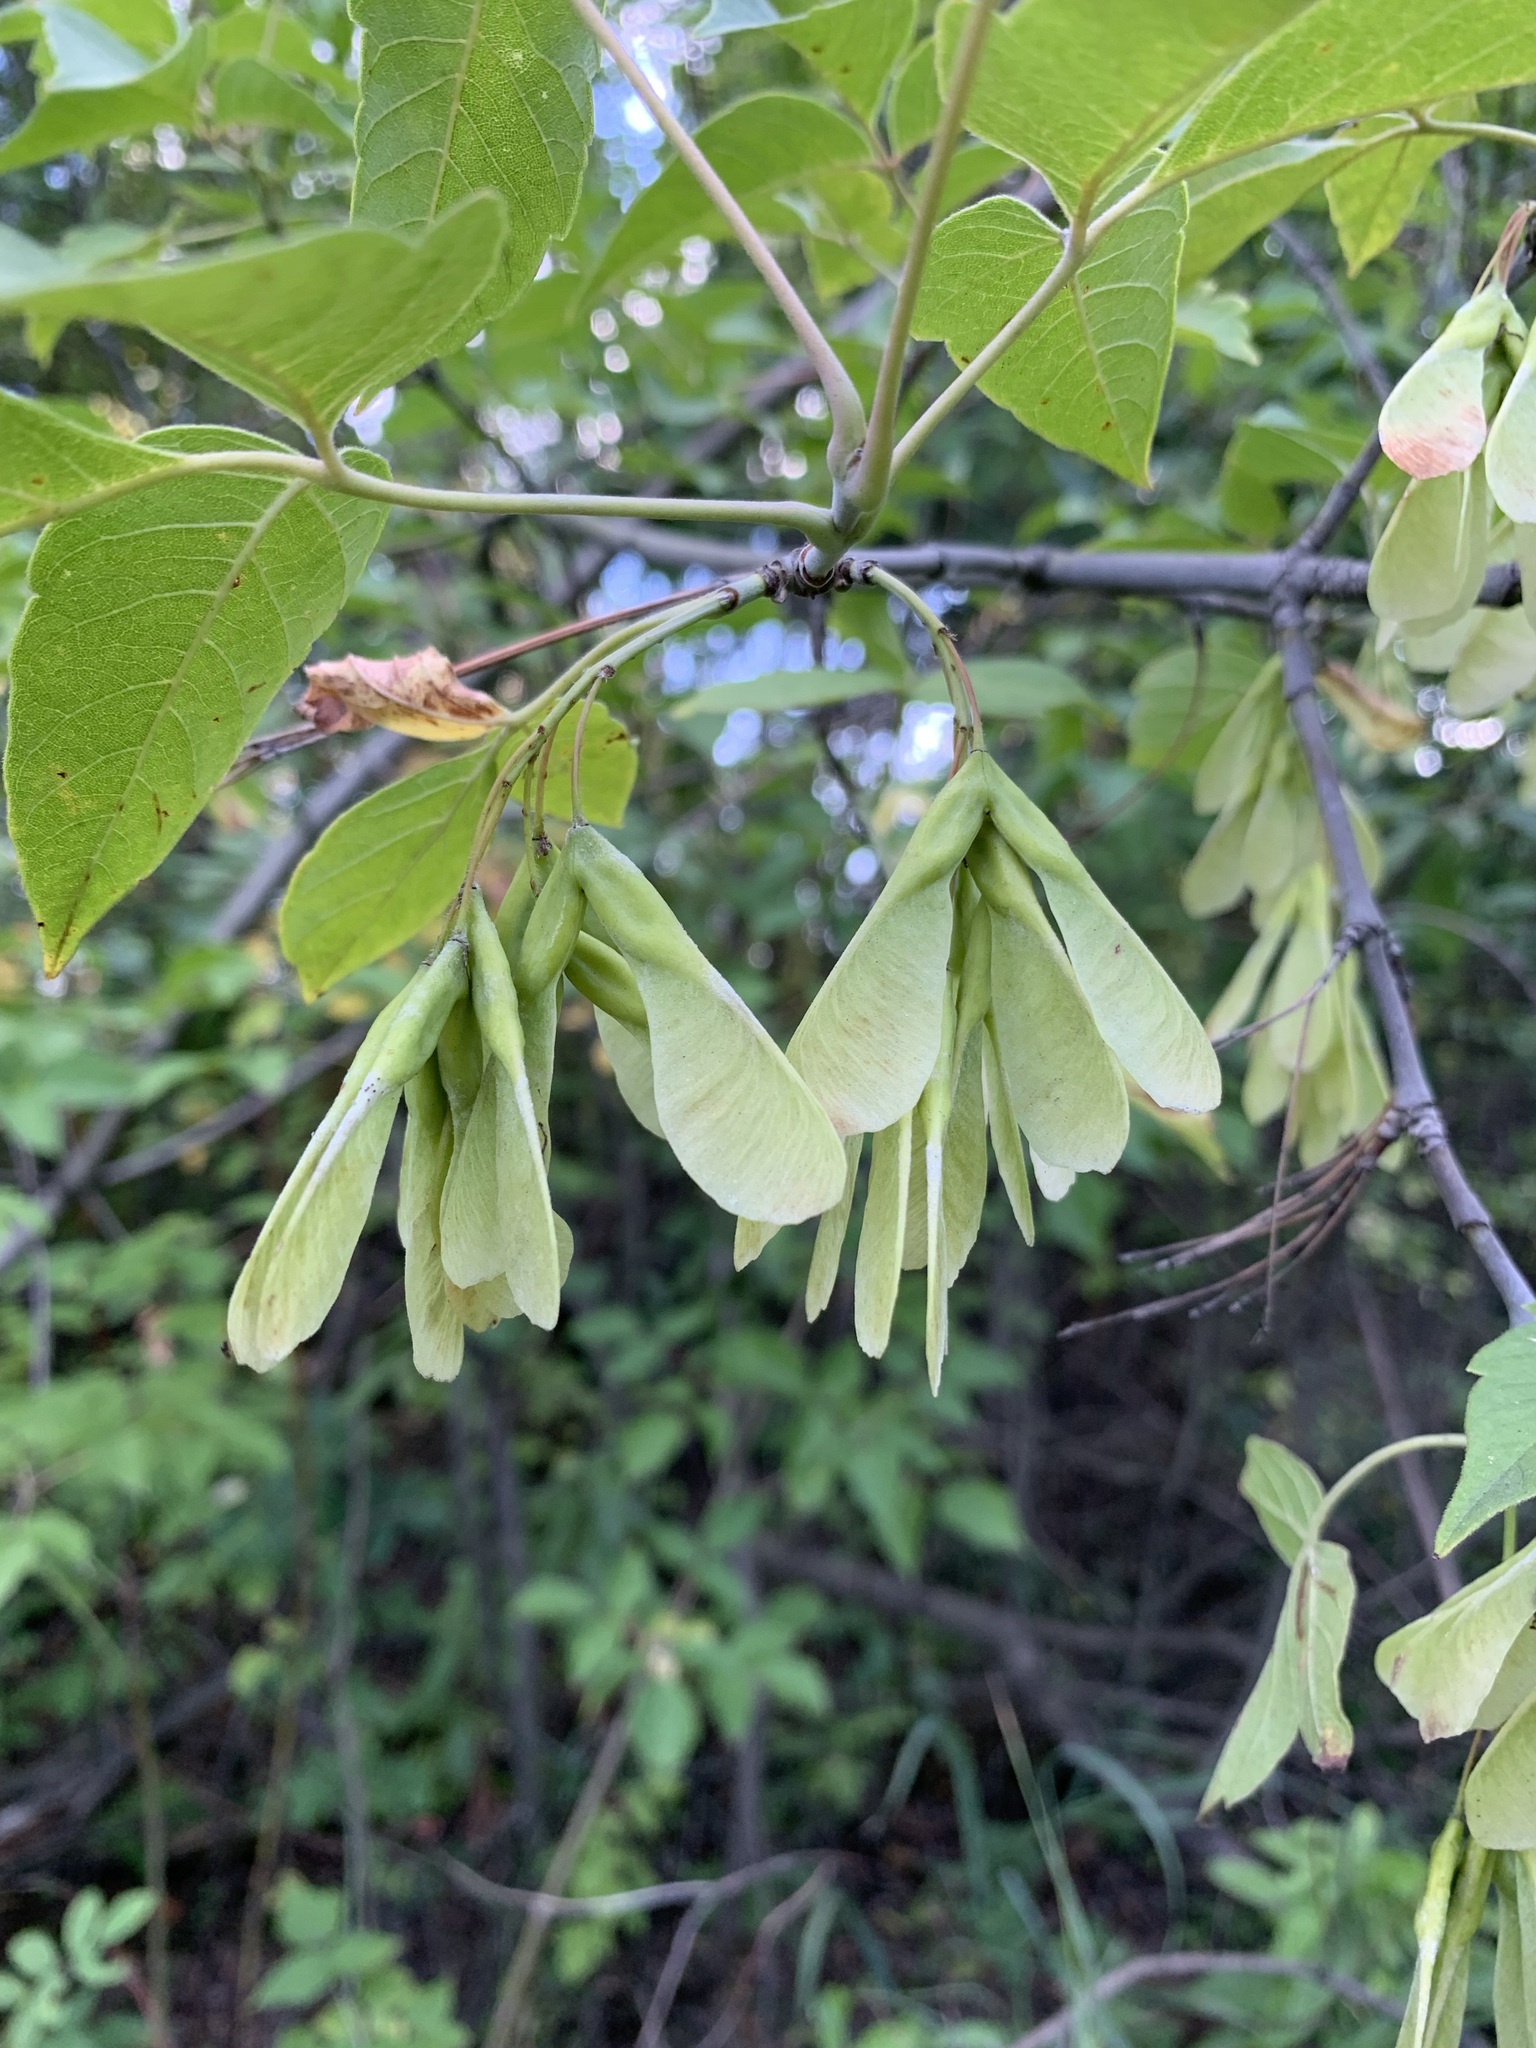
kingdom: Plantae
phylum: Tracheophyta
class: Magnoliopsida
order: Sapindales
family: Sapindaceae
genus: Acer
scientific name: Acer negundo
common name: Ashleaf maple
